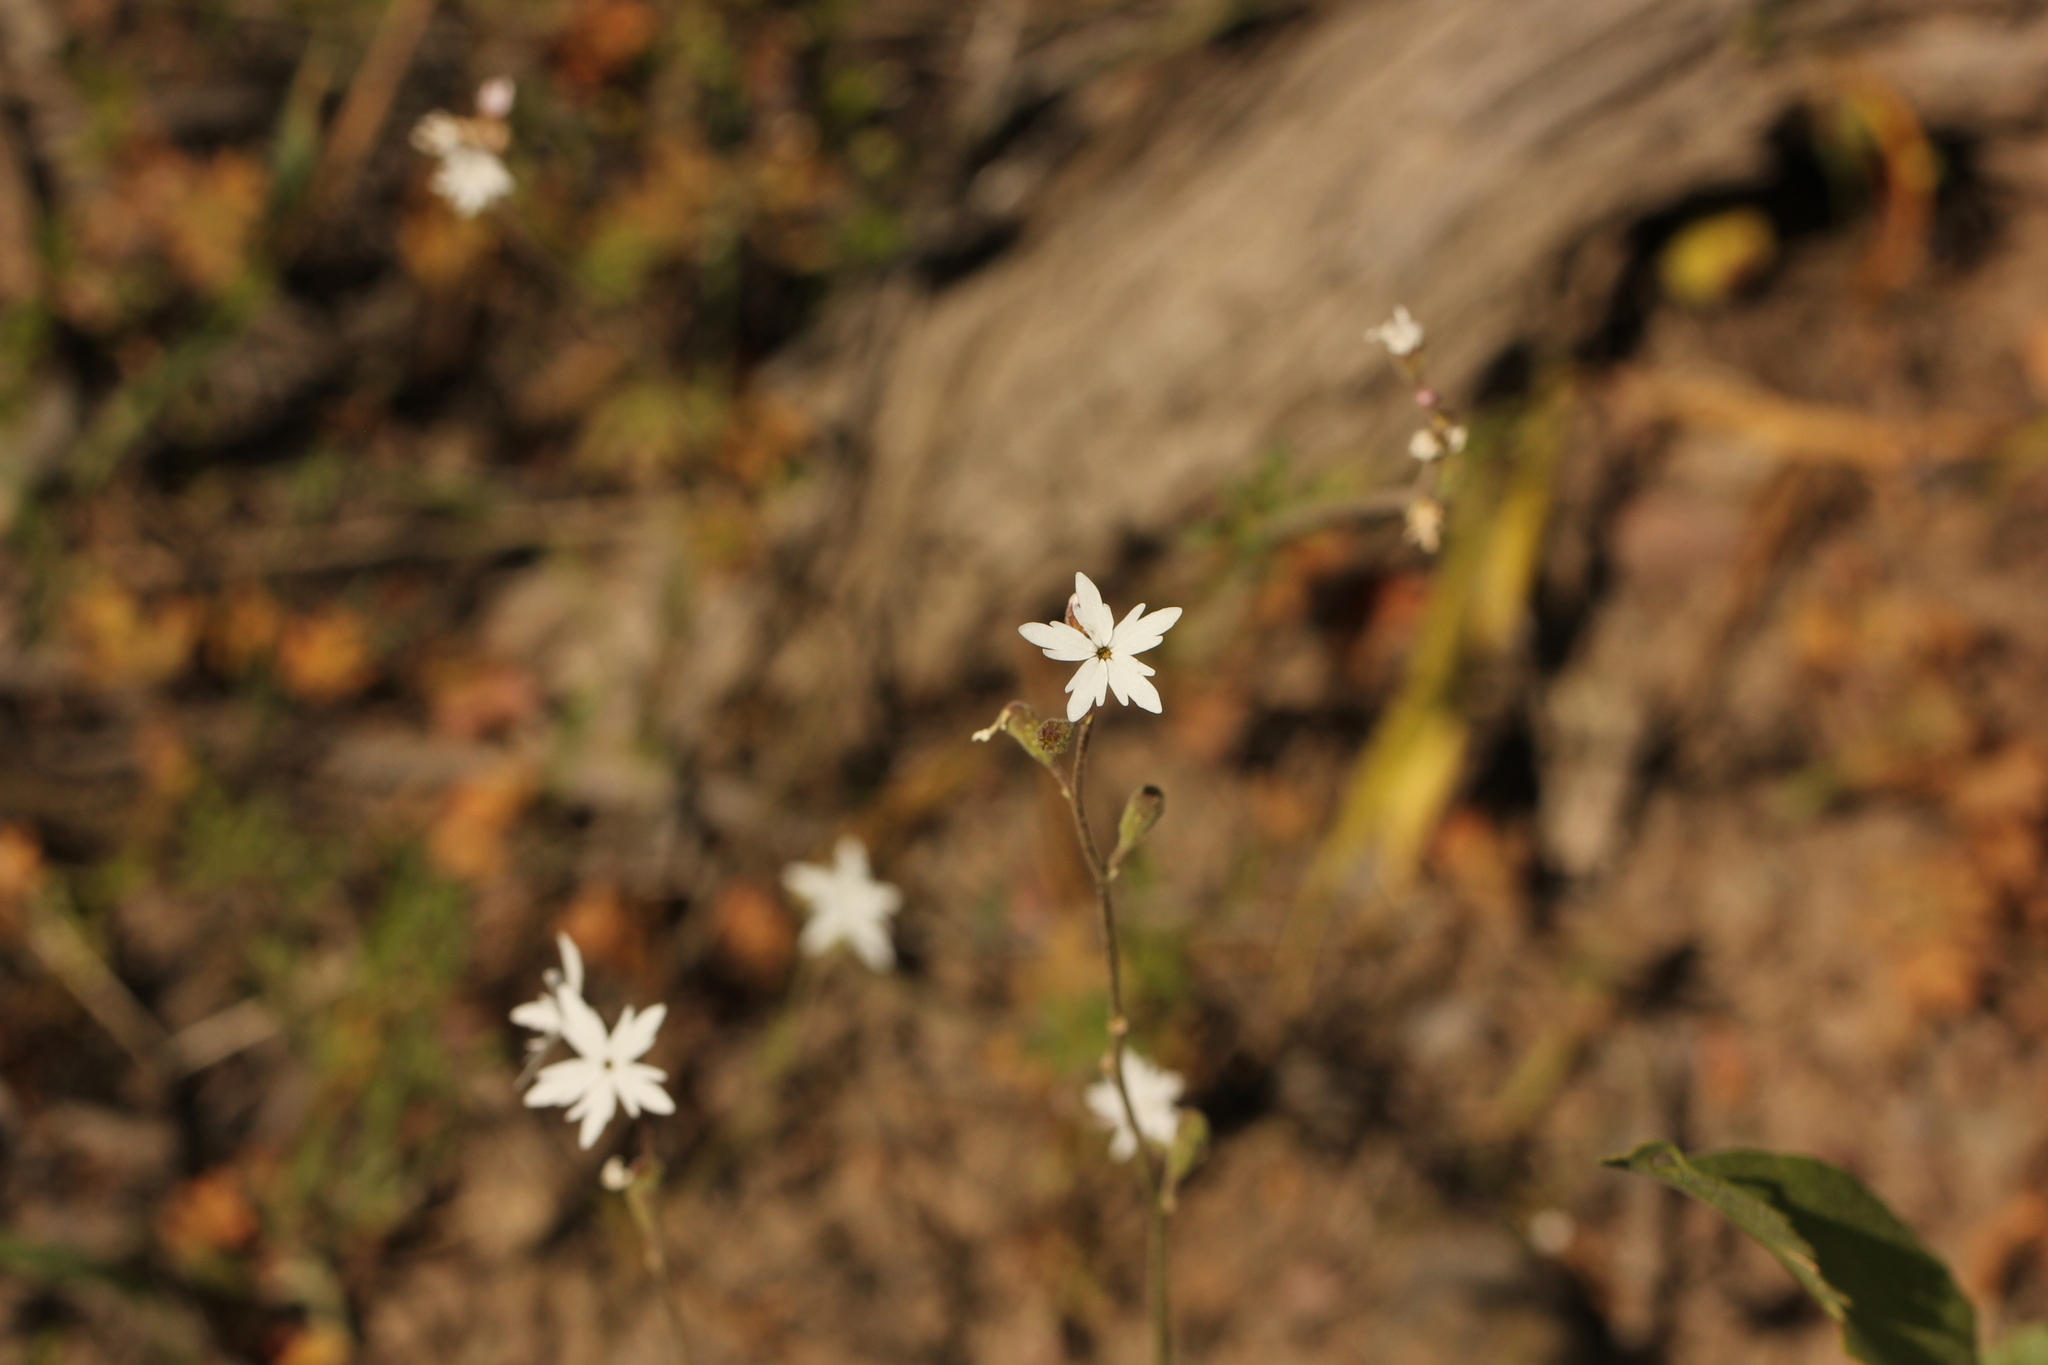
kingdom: Plantae
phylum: Tracheophyta
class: Magnoliopsida
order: Saxifragales
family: Saxifragaceae
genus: Lithophragma
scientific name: Lithophragma parviflorum
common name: Small-flowered fringe-cup
